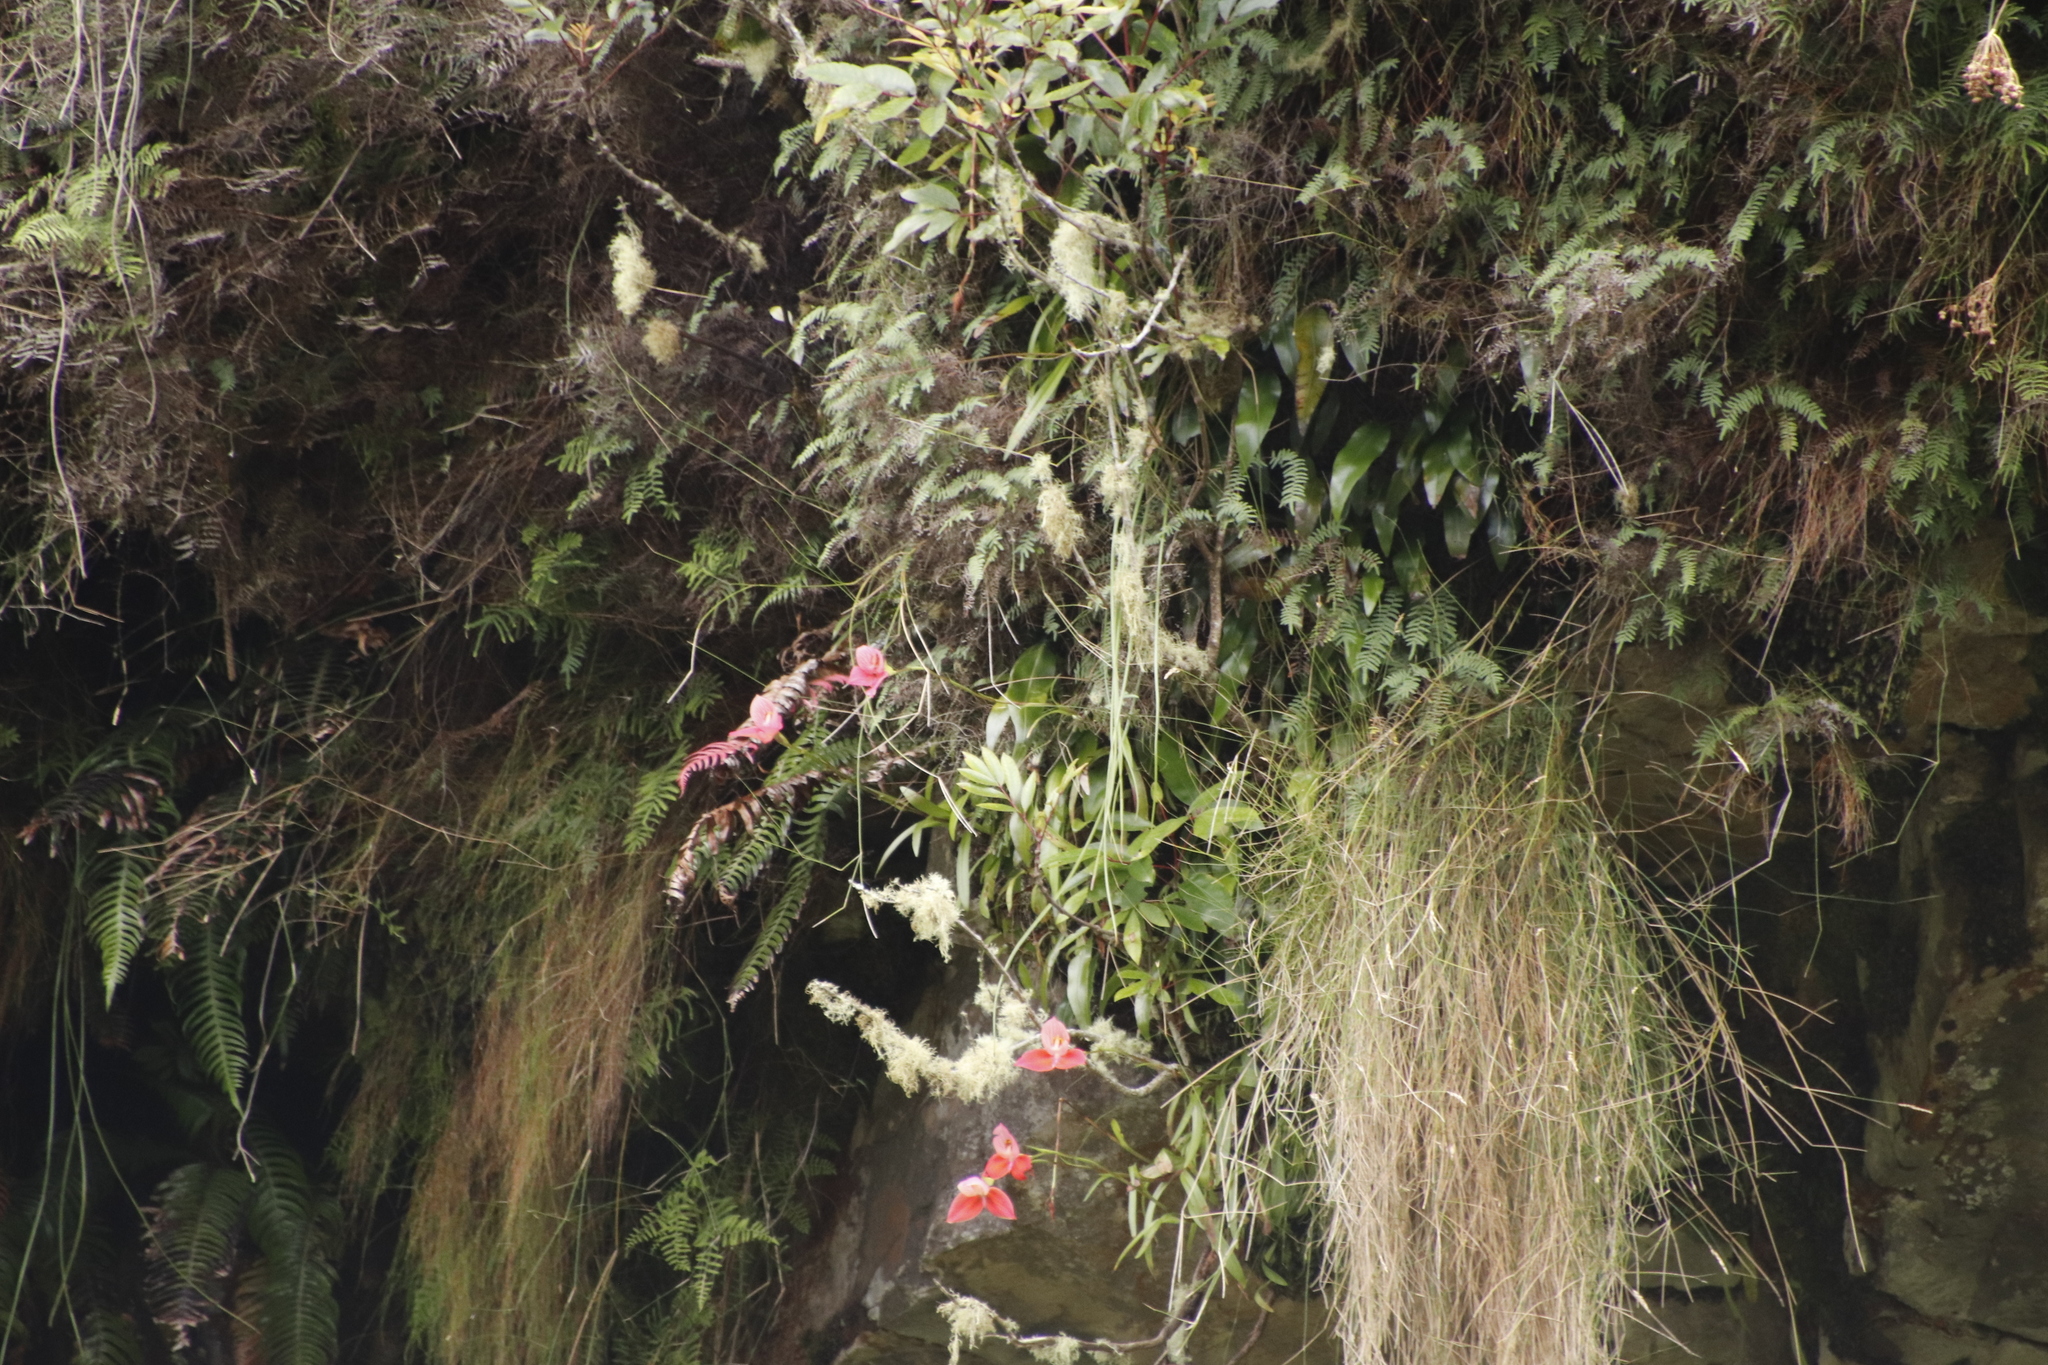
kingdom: Plantae
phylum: Tracheophyta
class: Liliopsida
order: Asparagales
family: Orchidaceae
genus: Disa
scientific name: Disa uniflora
